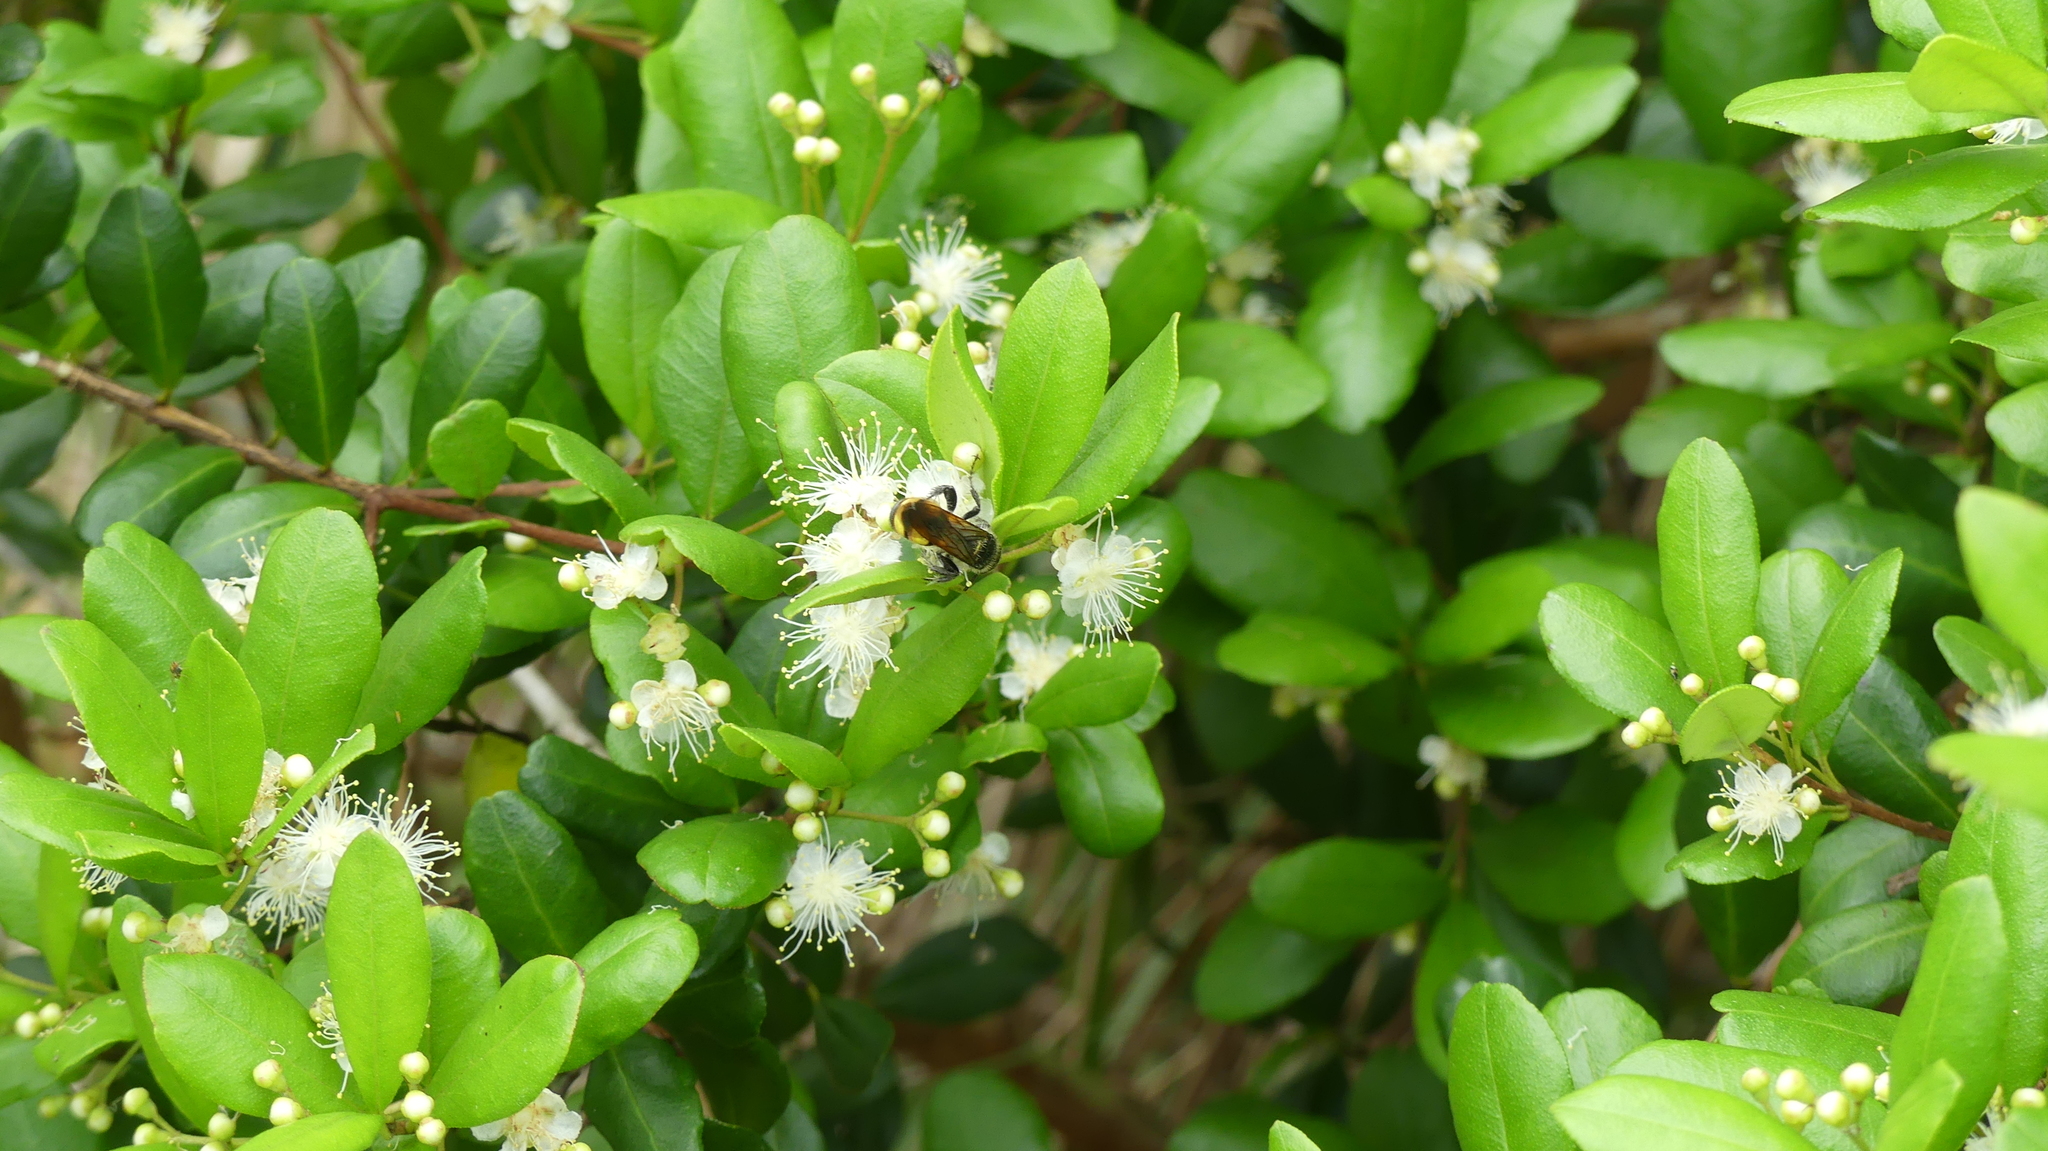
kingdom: Animalia
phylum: Arthropoda
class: Insecta
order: Hymenoptera
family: Scoliidae
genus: Dielis
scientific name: Dielis
